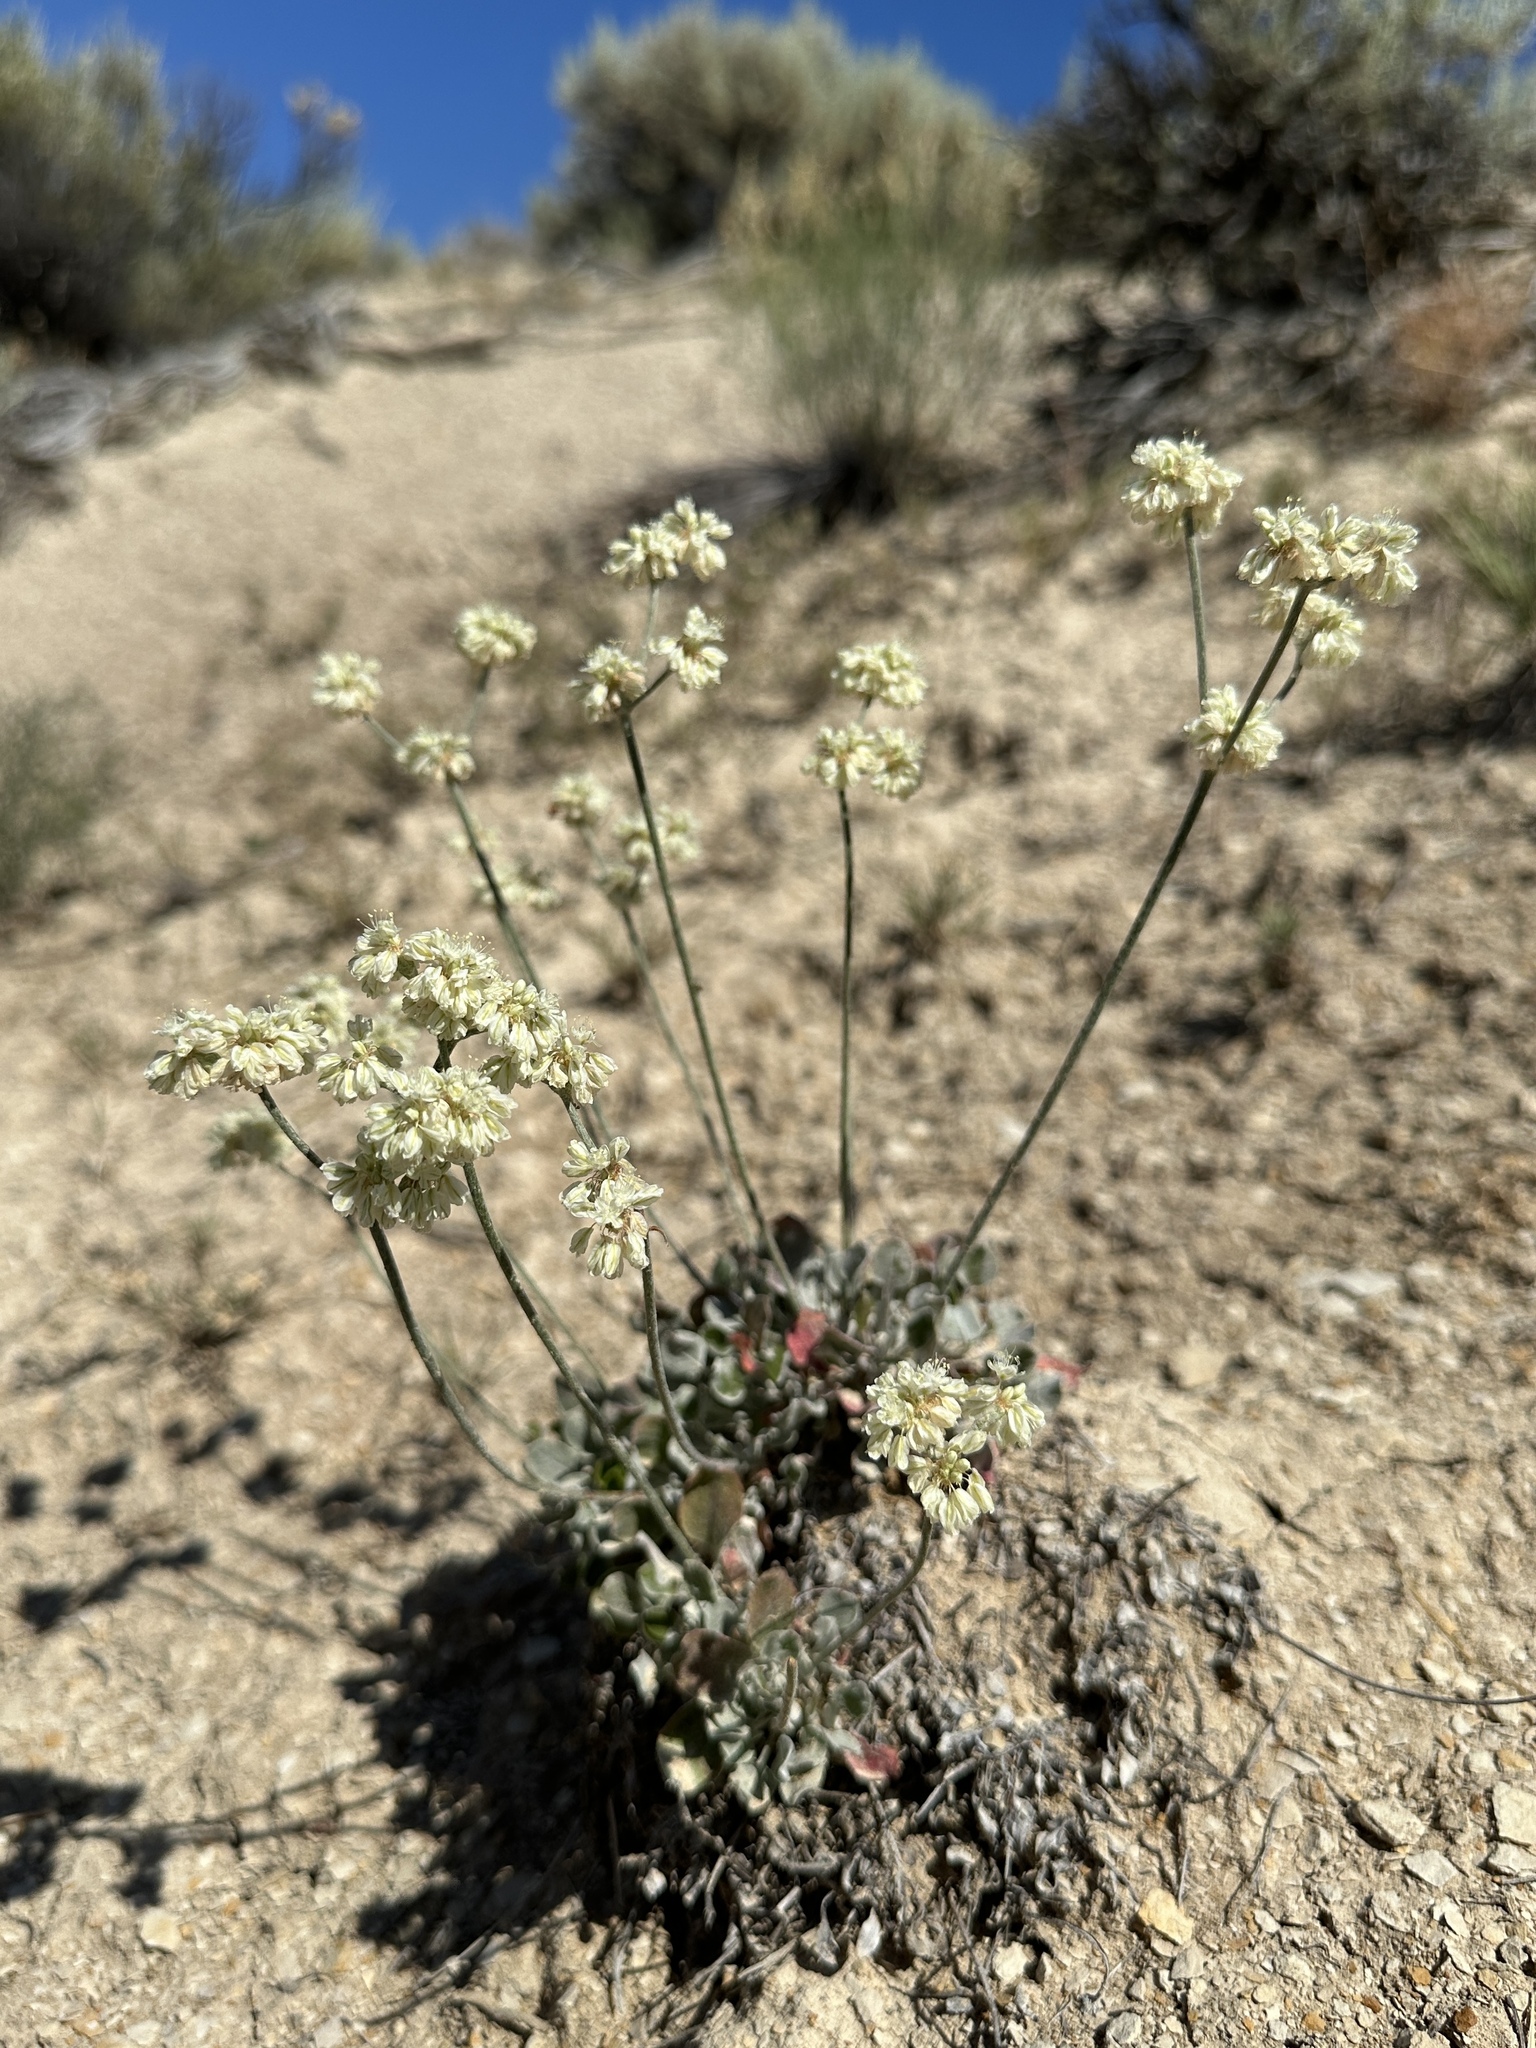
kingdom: Plantae
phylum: Tracheophyta
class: Magnoliopsida
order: Caryophyllales
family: Polygonaceae
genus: Eriogonum
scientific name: Eriogonum strictum
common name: Blue mountain buckwheat
